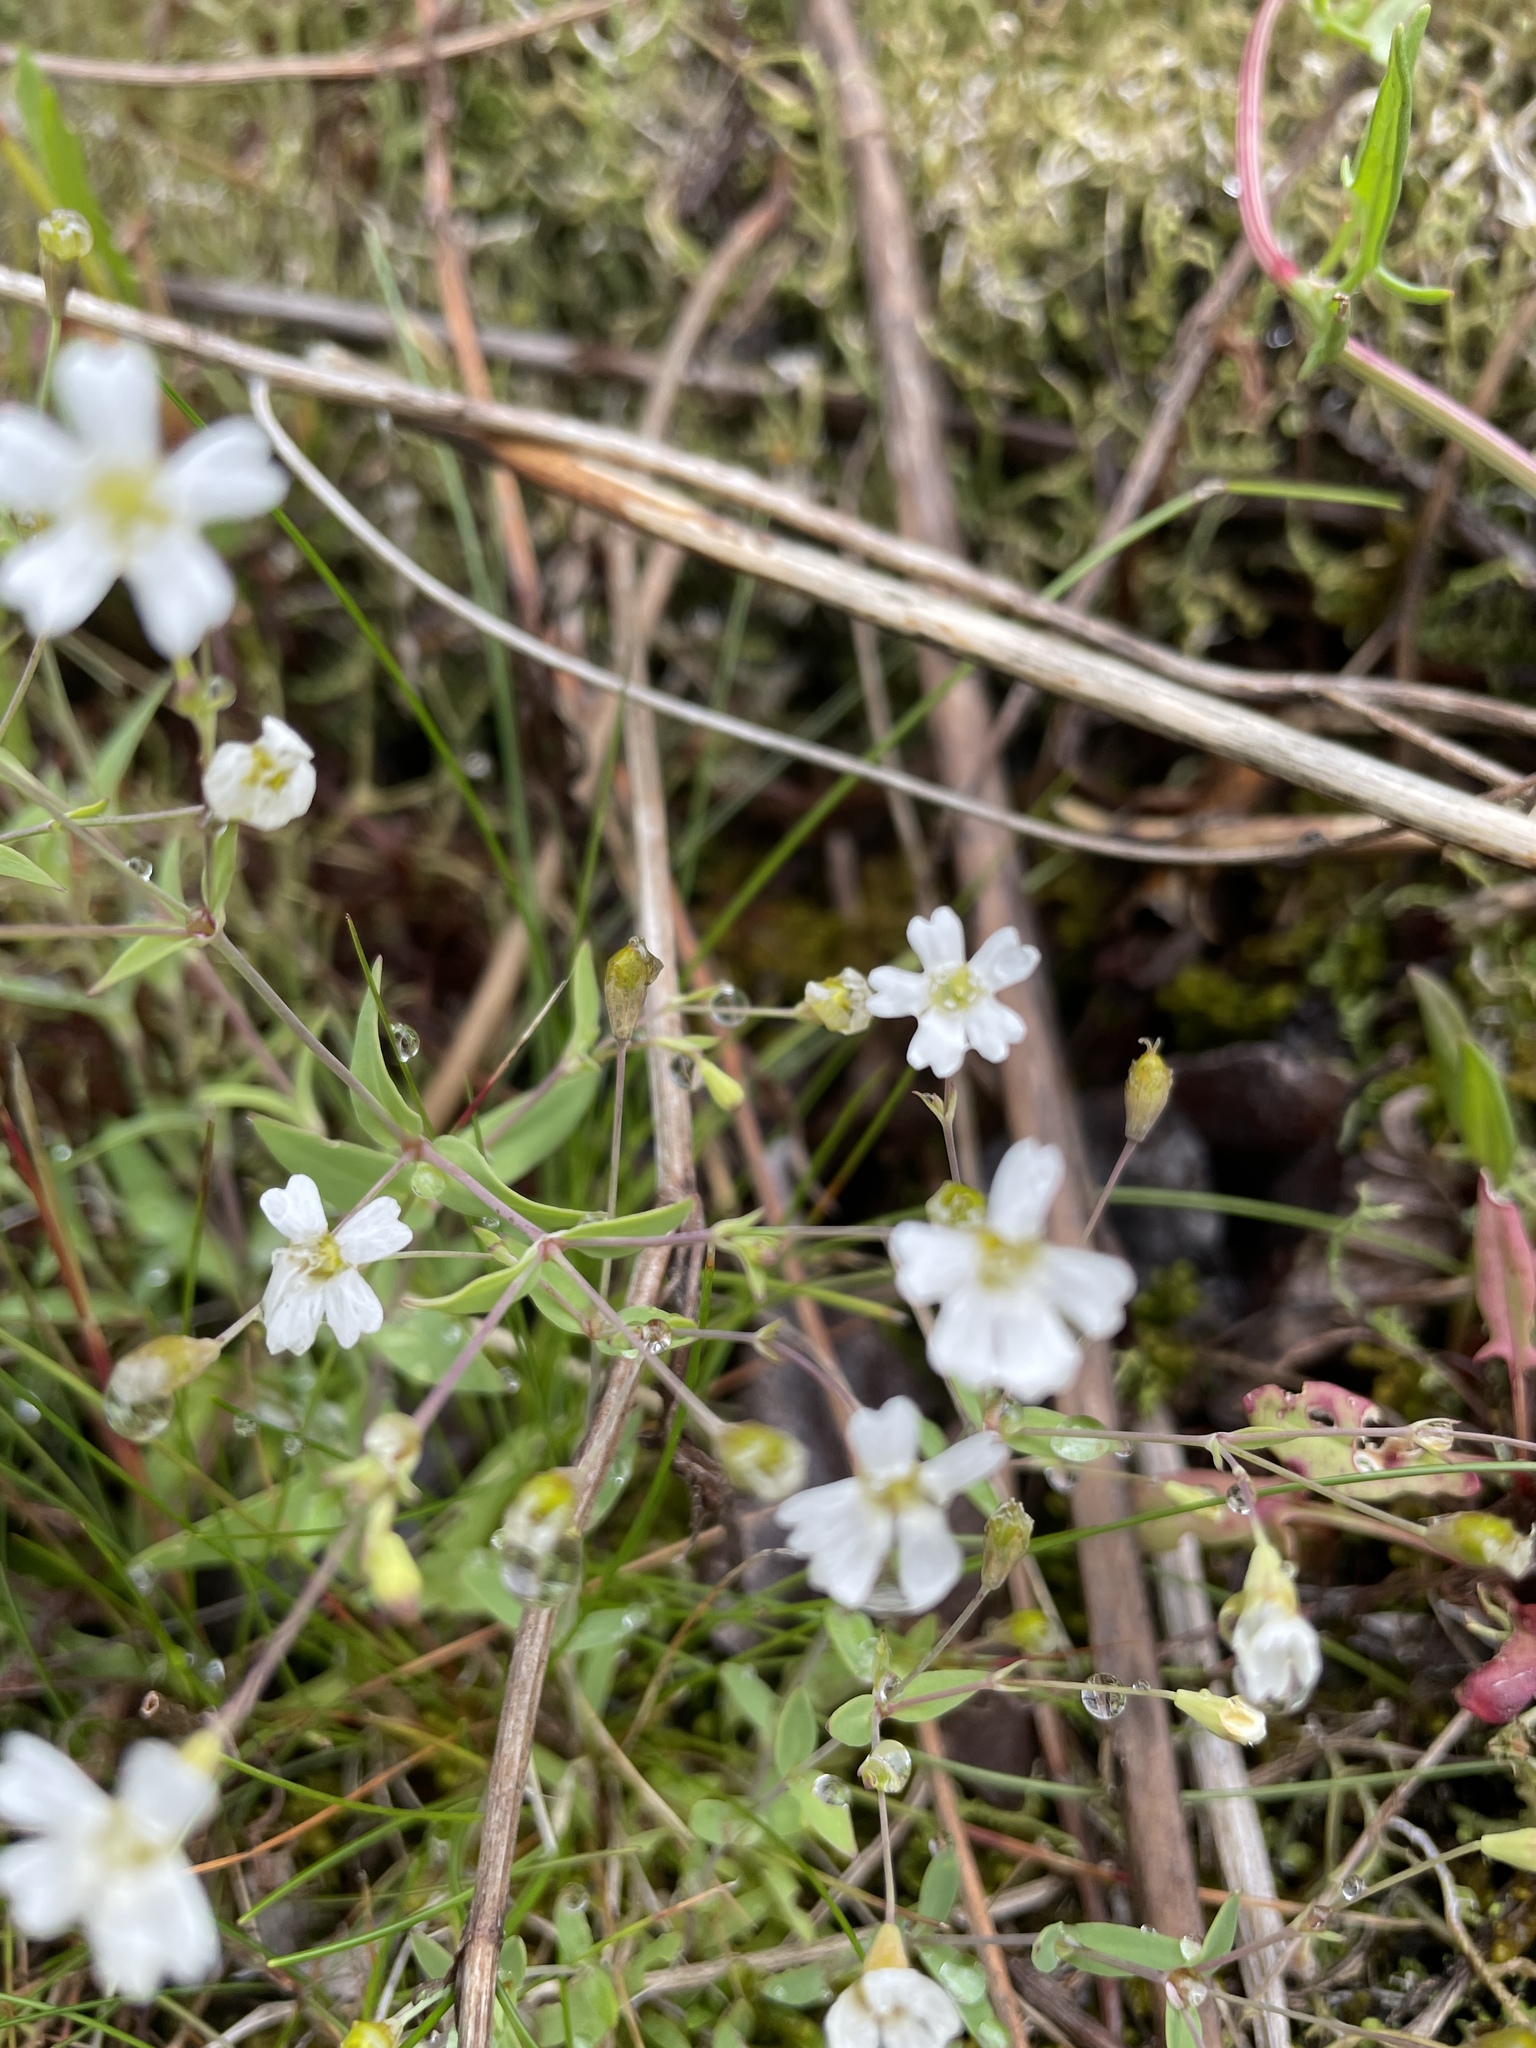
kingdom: Plantae
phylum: Tracheophyta
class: Magnoliopsida
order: Caryophyllales
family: Caryophyllaceae
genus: Atocion
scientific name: Atocion rupestre
